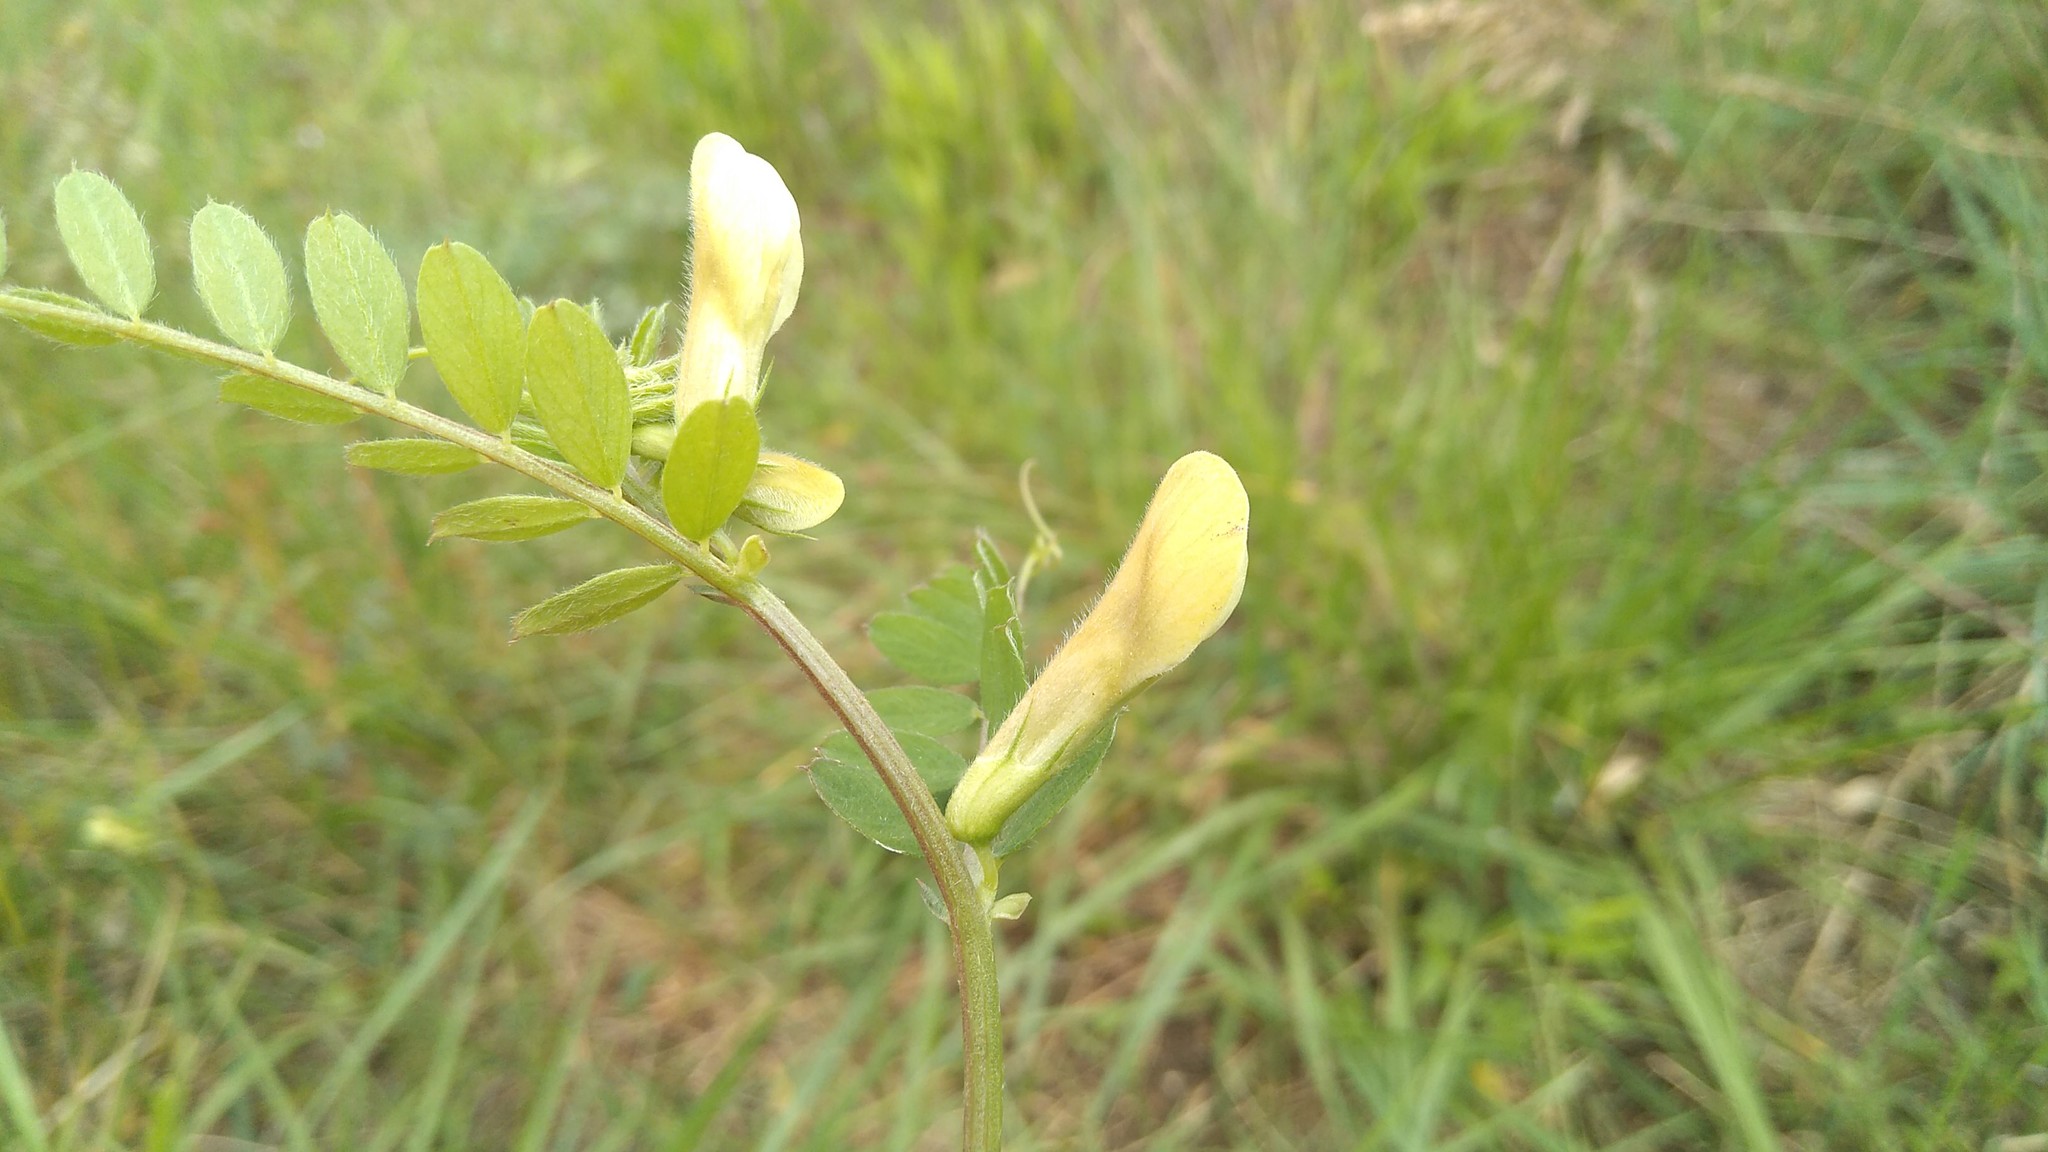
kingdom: Plantae
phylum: Tracheophyta
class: Magnoliopsida
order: Fabales
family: Fabaceae
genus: Vicia
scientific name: Vicia hybrida
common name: Hairy yellow vetch
